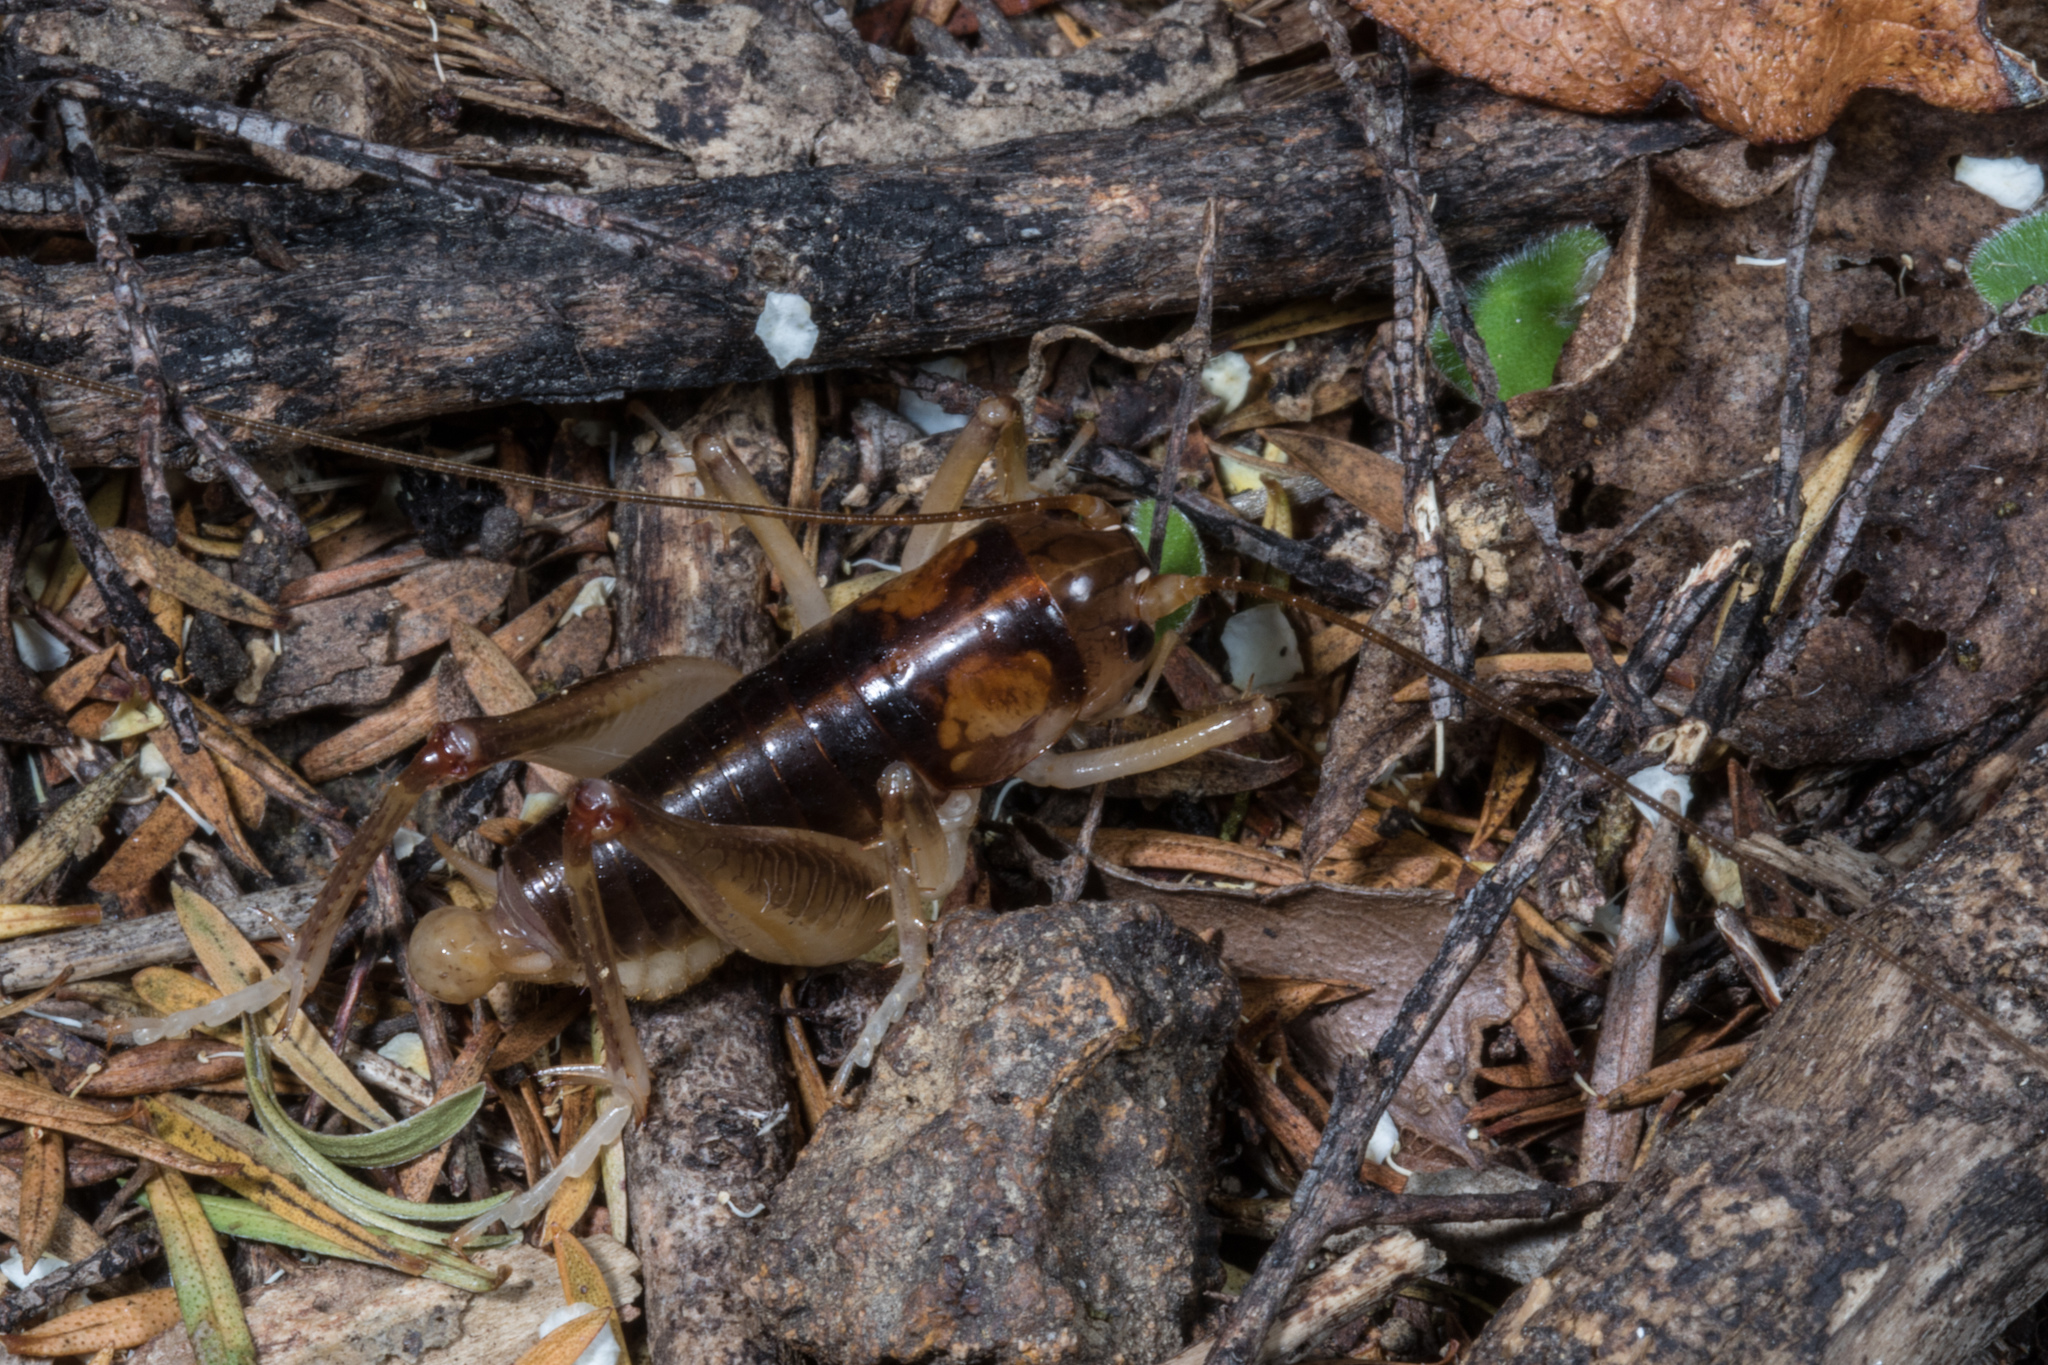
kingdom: Animalia
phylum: Arthropoda
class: Insecta
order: Orthoptera
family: Anostostomatidae
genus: Hemiandrus
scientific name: Hemiandrus pallitarsis
